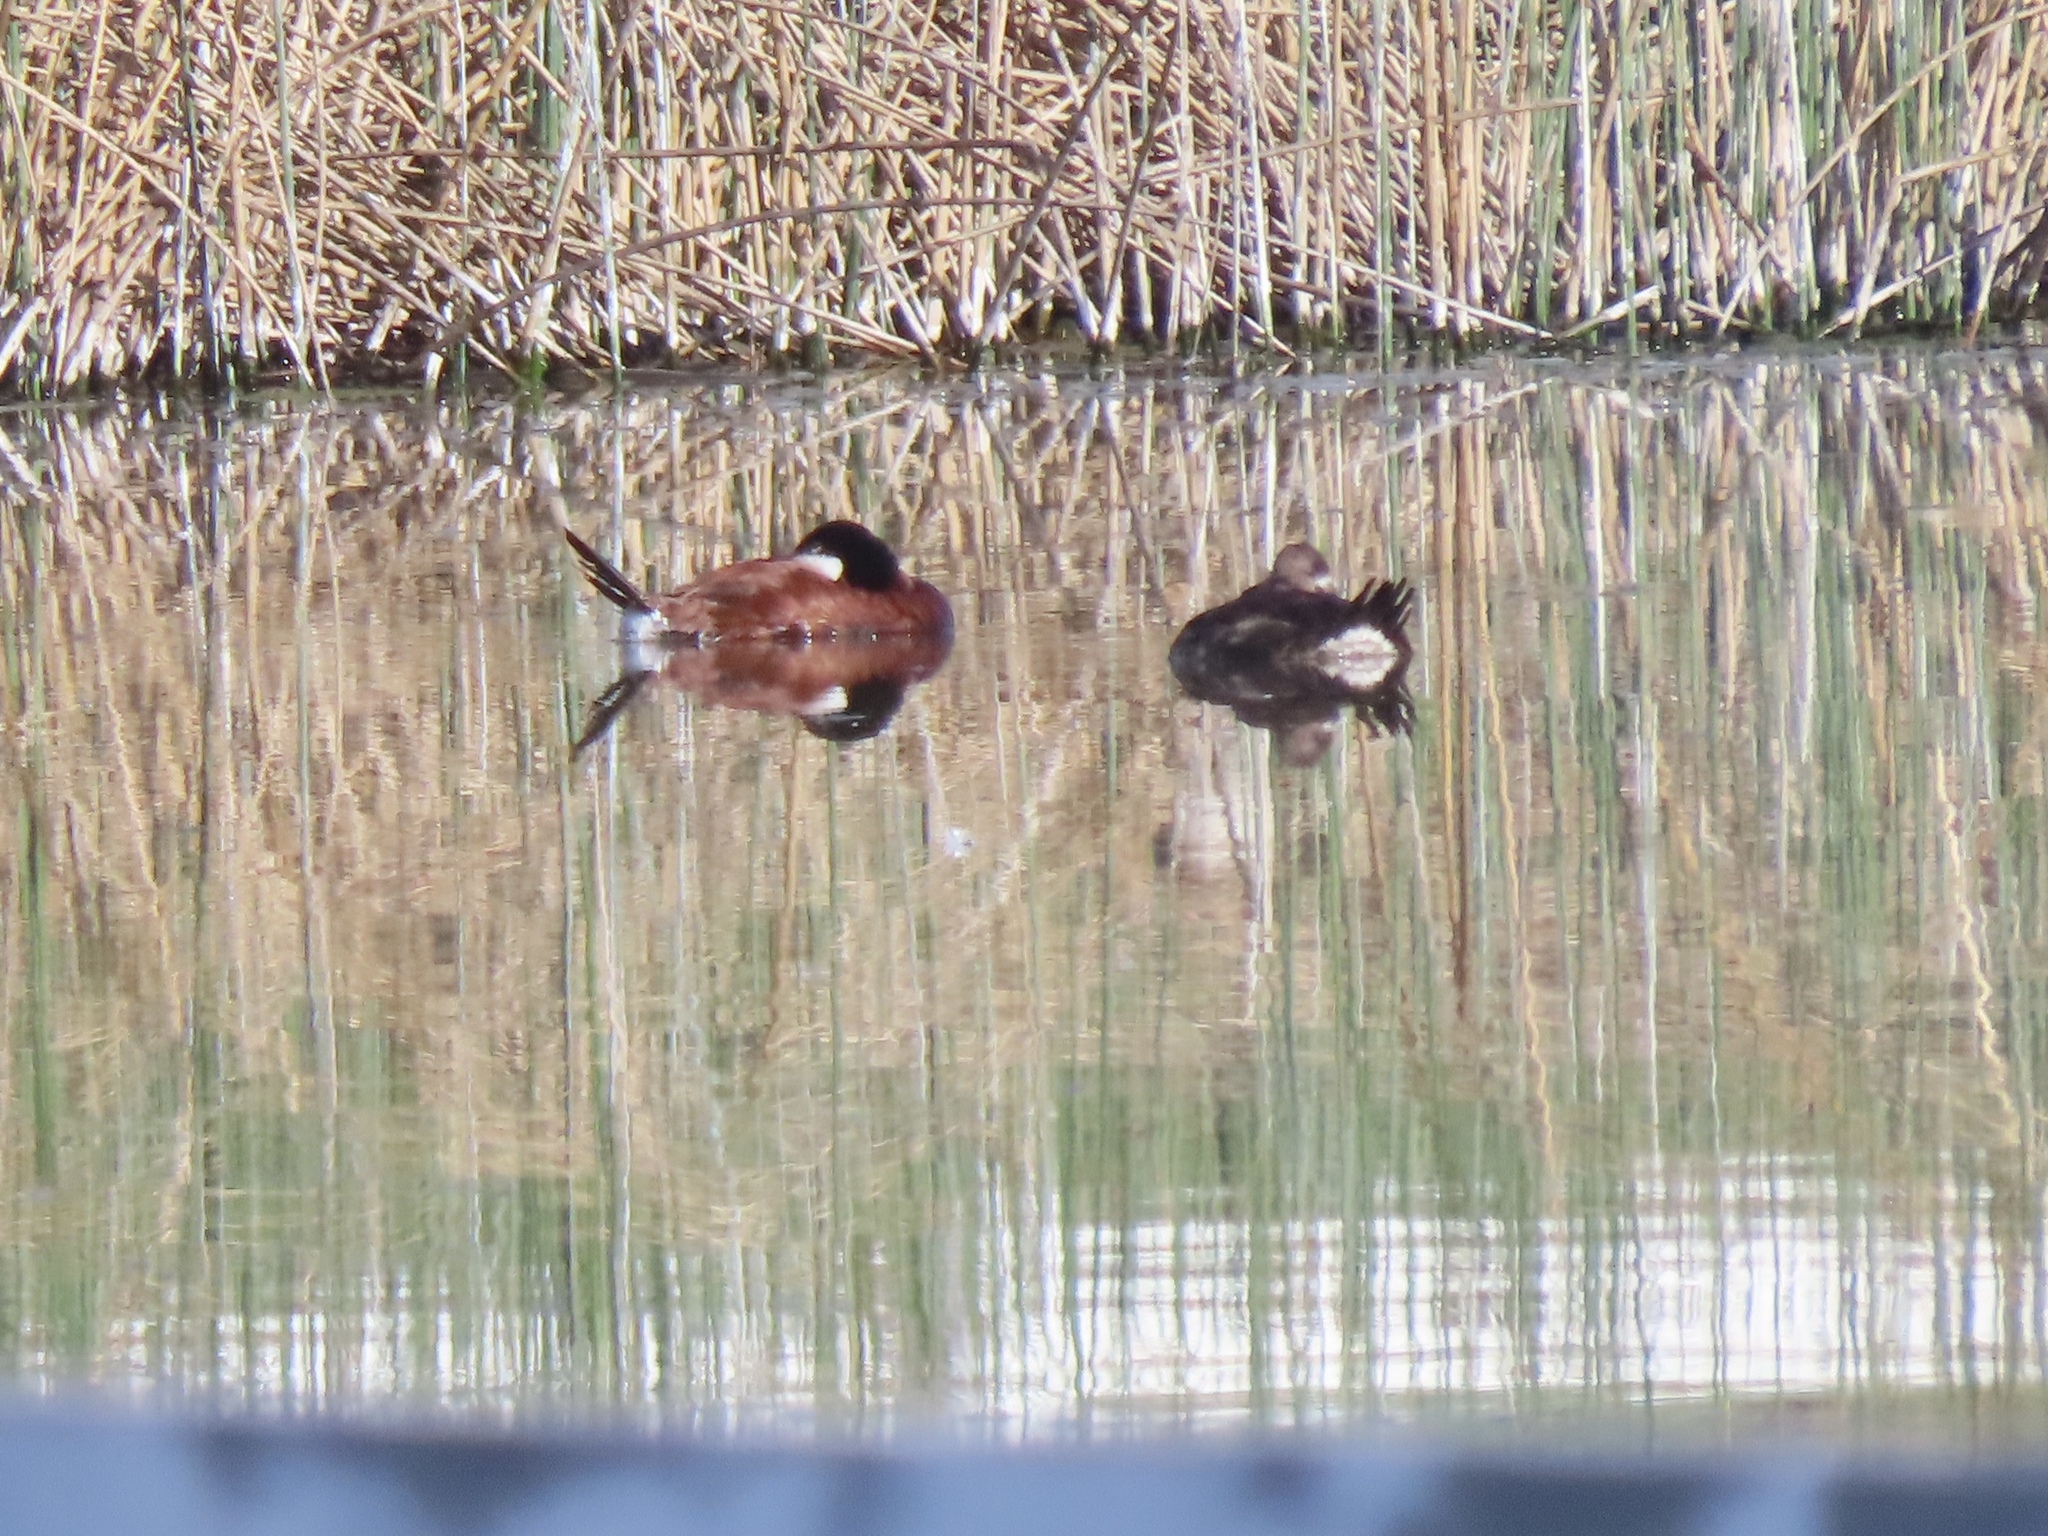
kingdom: Animalia
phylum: Chordata
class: Aves
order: Anseriformes
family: Anatidae
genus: Oxyura
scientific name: Oxyura jamaicensis
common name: Ruddy duck
